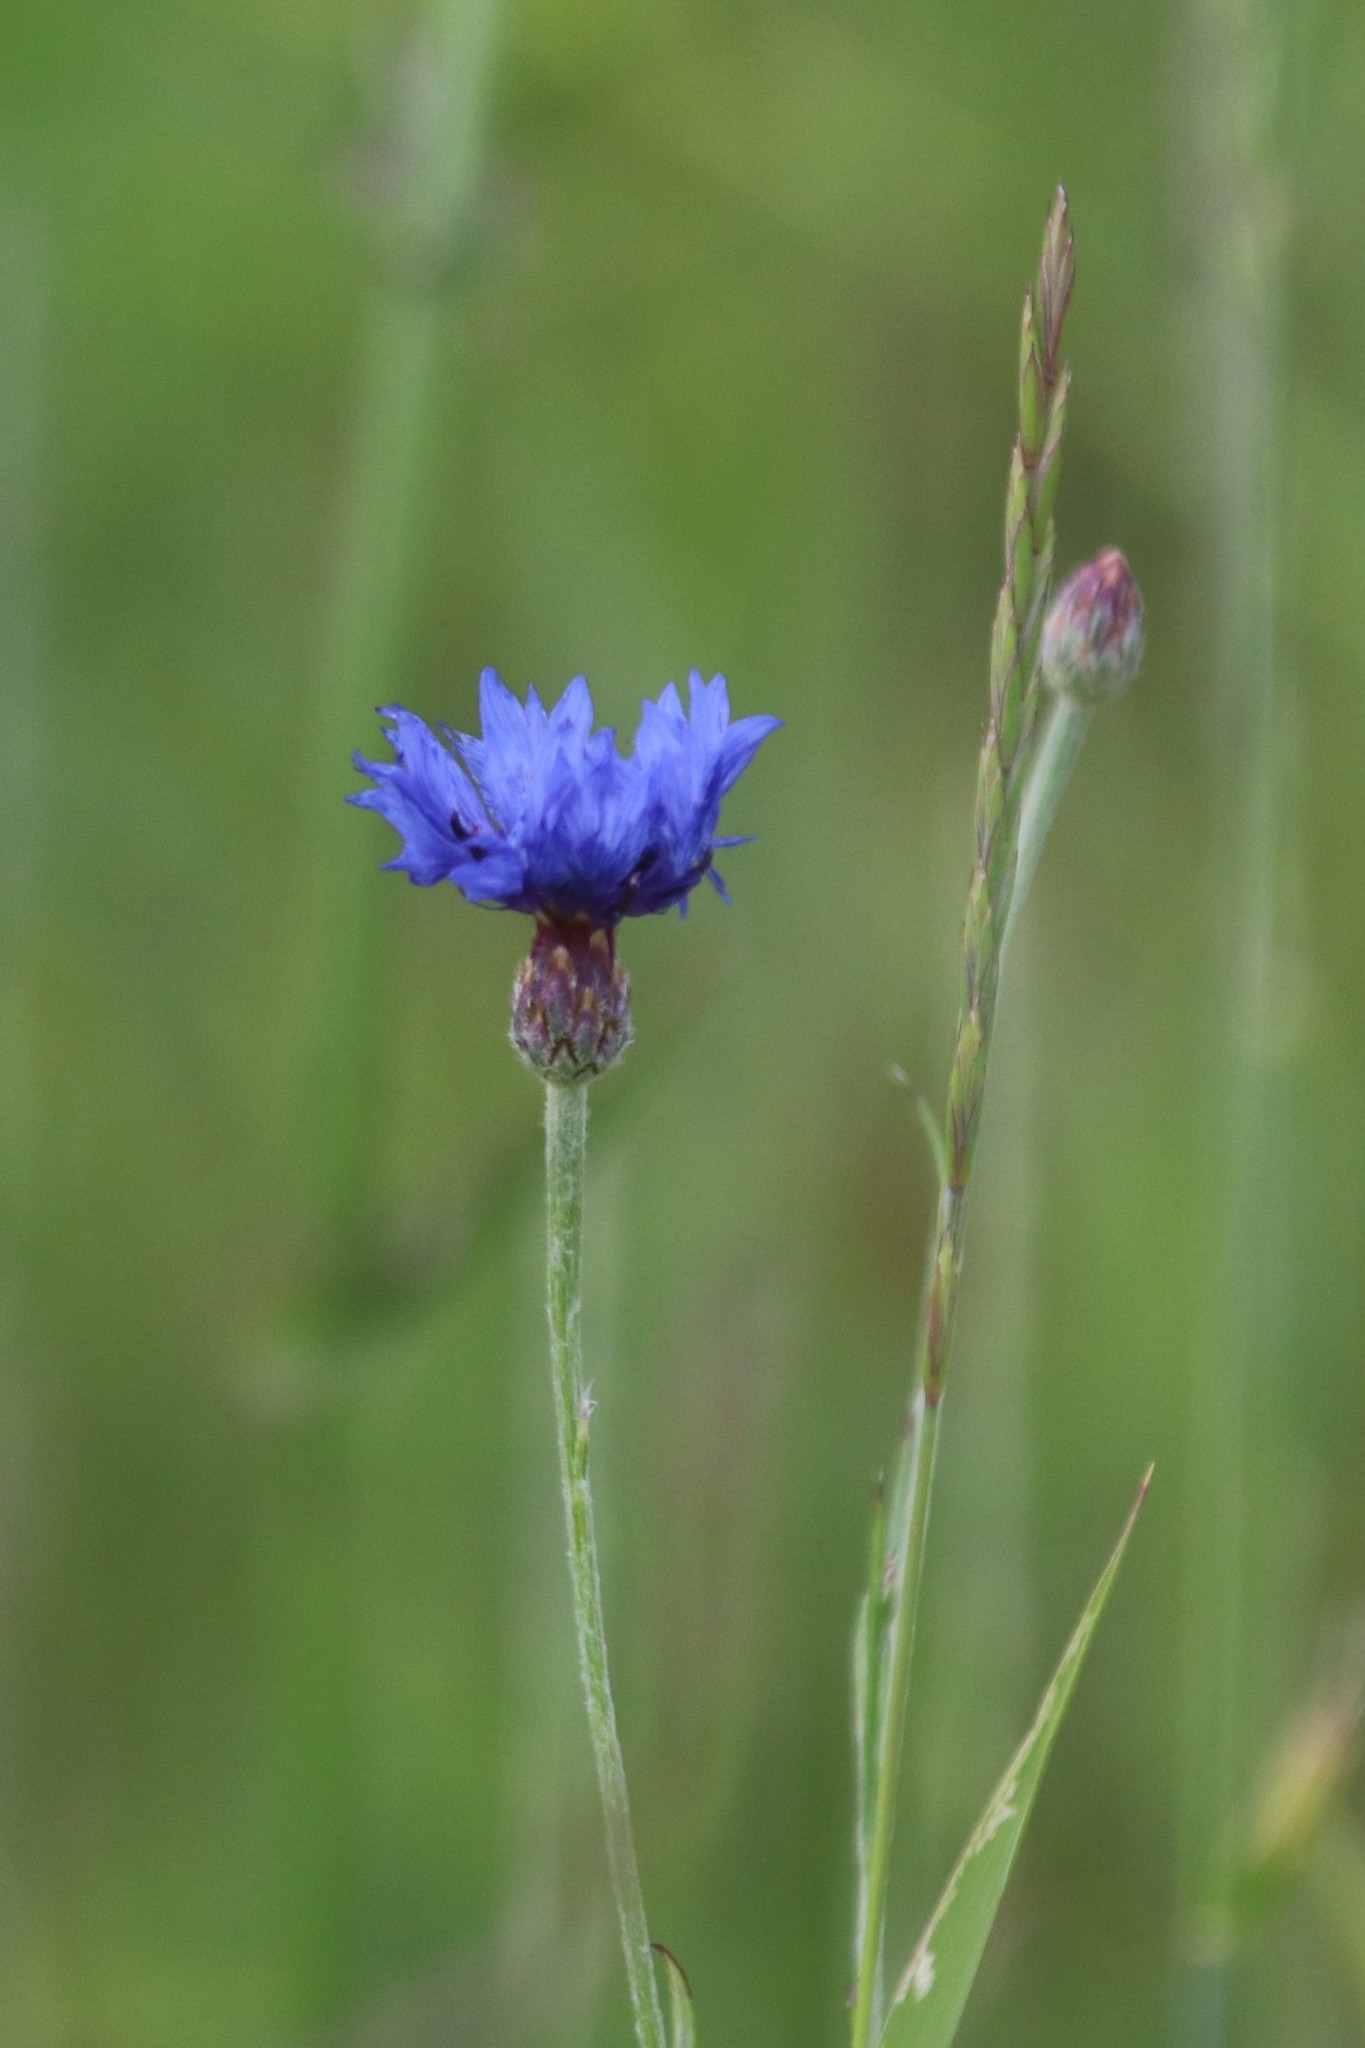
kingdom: Plantae
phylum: Tracheophyta
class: Magnoliopsida
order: Asterales
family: Asteraceae
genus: Centaurea
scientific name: Centaurea cyanus
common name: Cornflower
